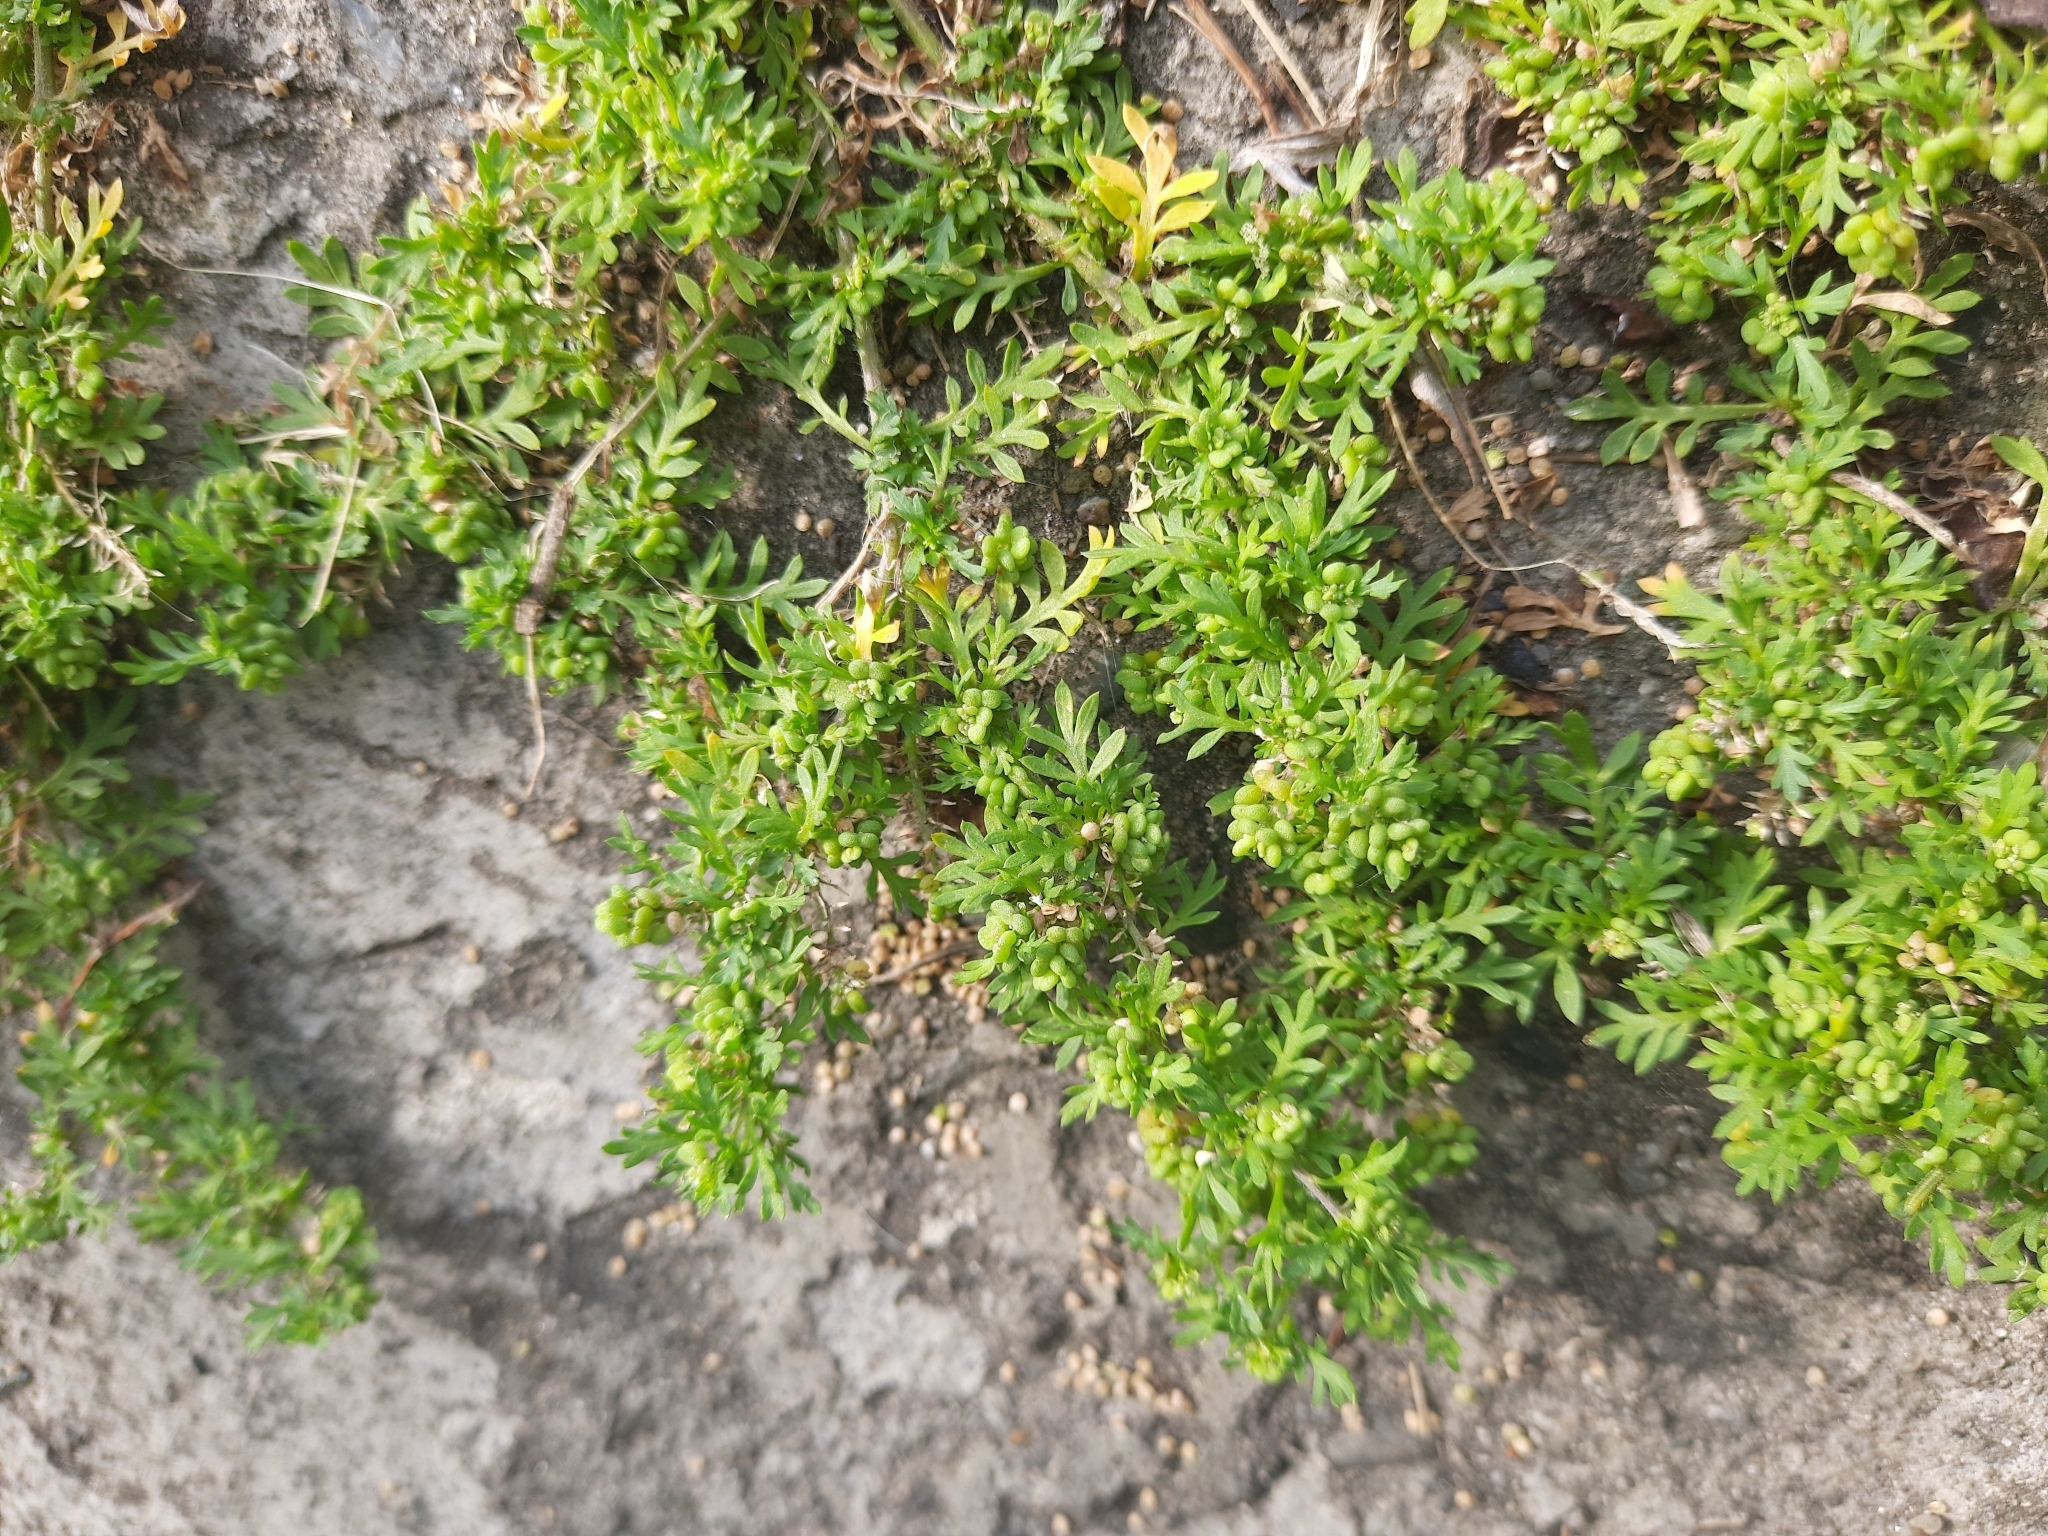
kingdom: Plantae
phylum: Tracheophyta
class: Magnoliopsida
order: Brassicales
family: Brassicaceae
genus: Lepidium
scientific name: Lepidium didymum
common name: Lesser swinecress
